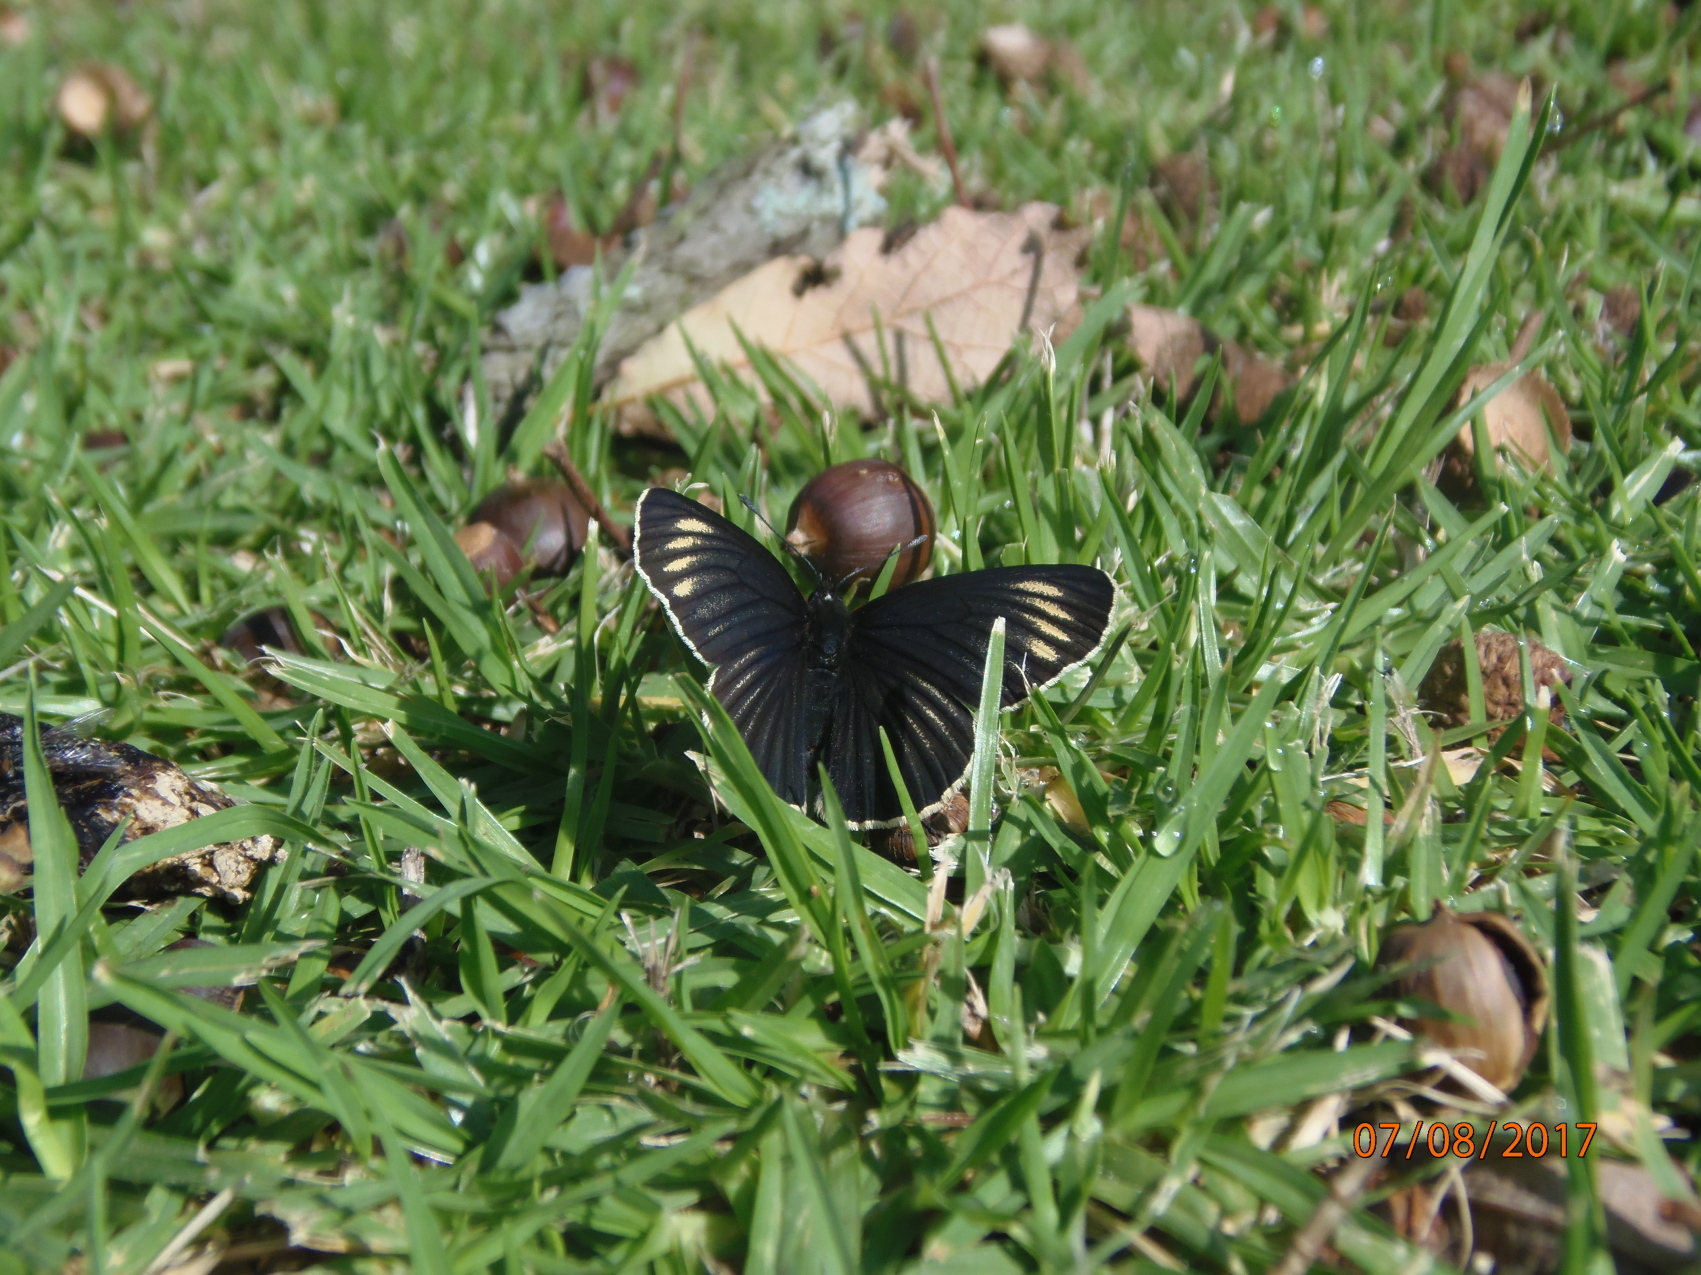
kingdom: Animalia
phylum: Arthropoda
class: Insecta
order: Lepidoptera
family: Nymphalidae
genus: Chlosyne
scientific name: Chlosyne ehrenbergii
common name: White-rayed patch
